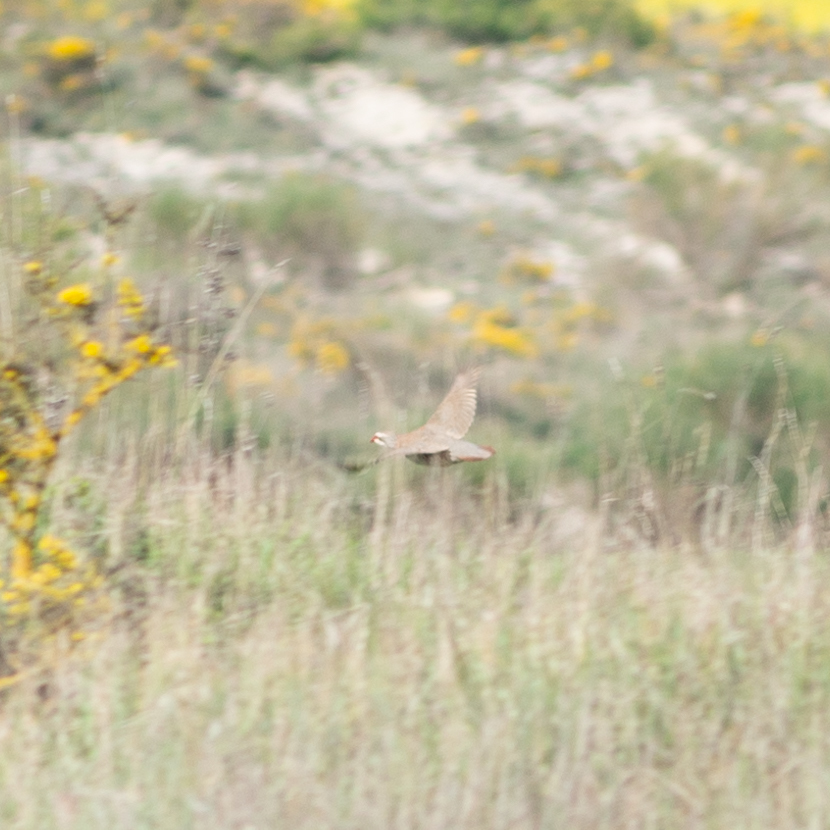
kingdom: Animalia
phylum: Chordata
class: Aves
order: Galliformes
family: Phasianidae
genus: Alectoris
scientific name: Alectoris rufa
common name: Red-legged partridge
